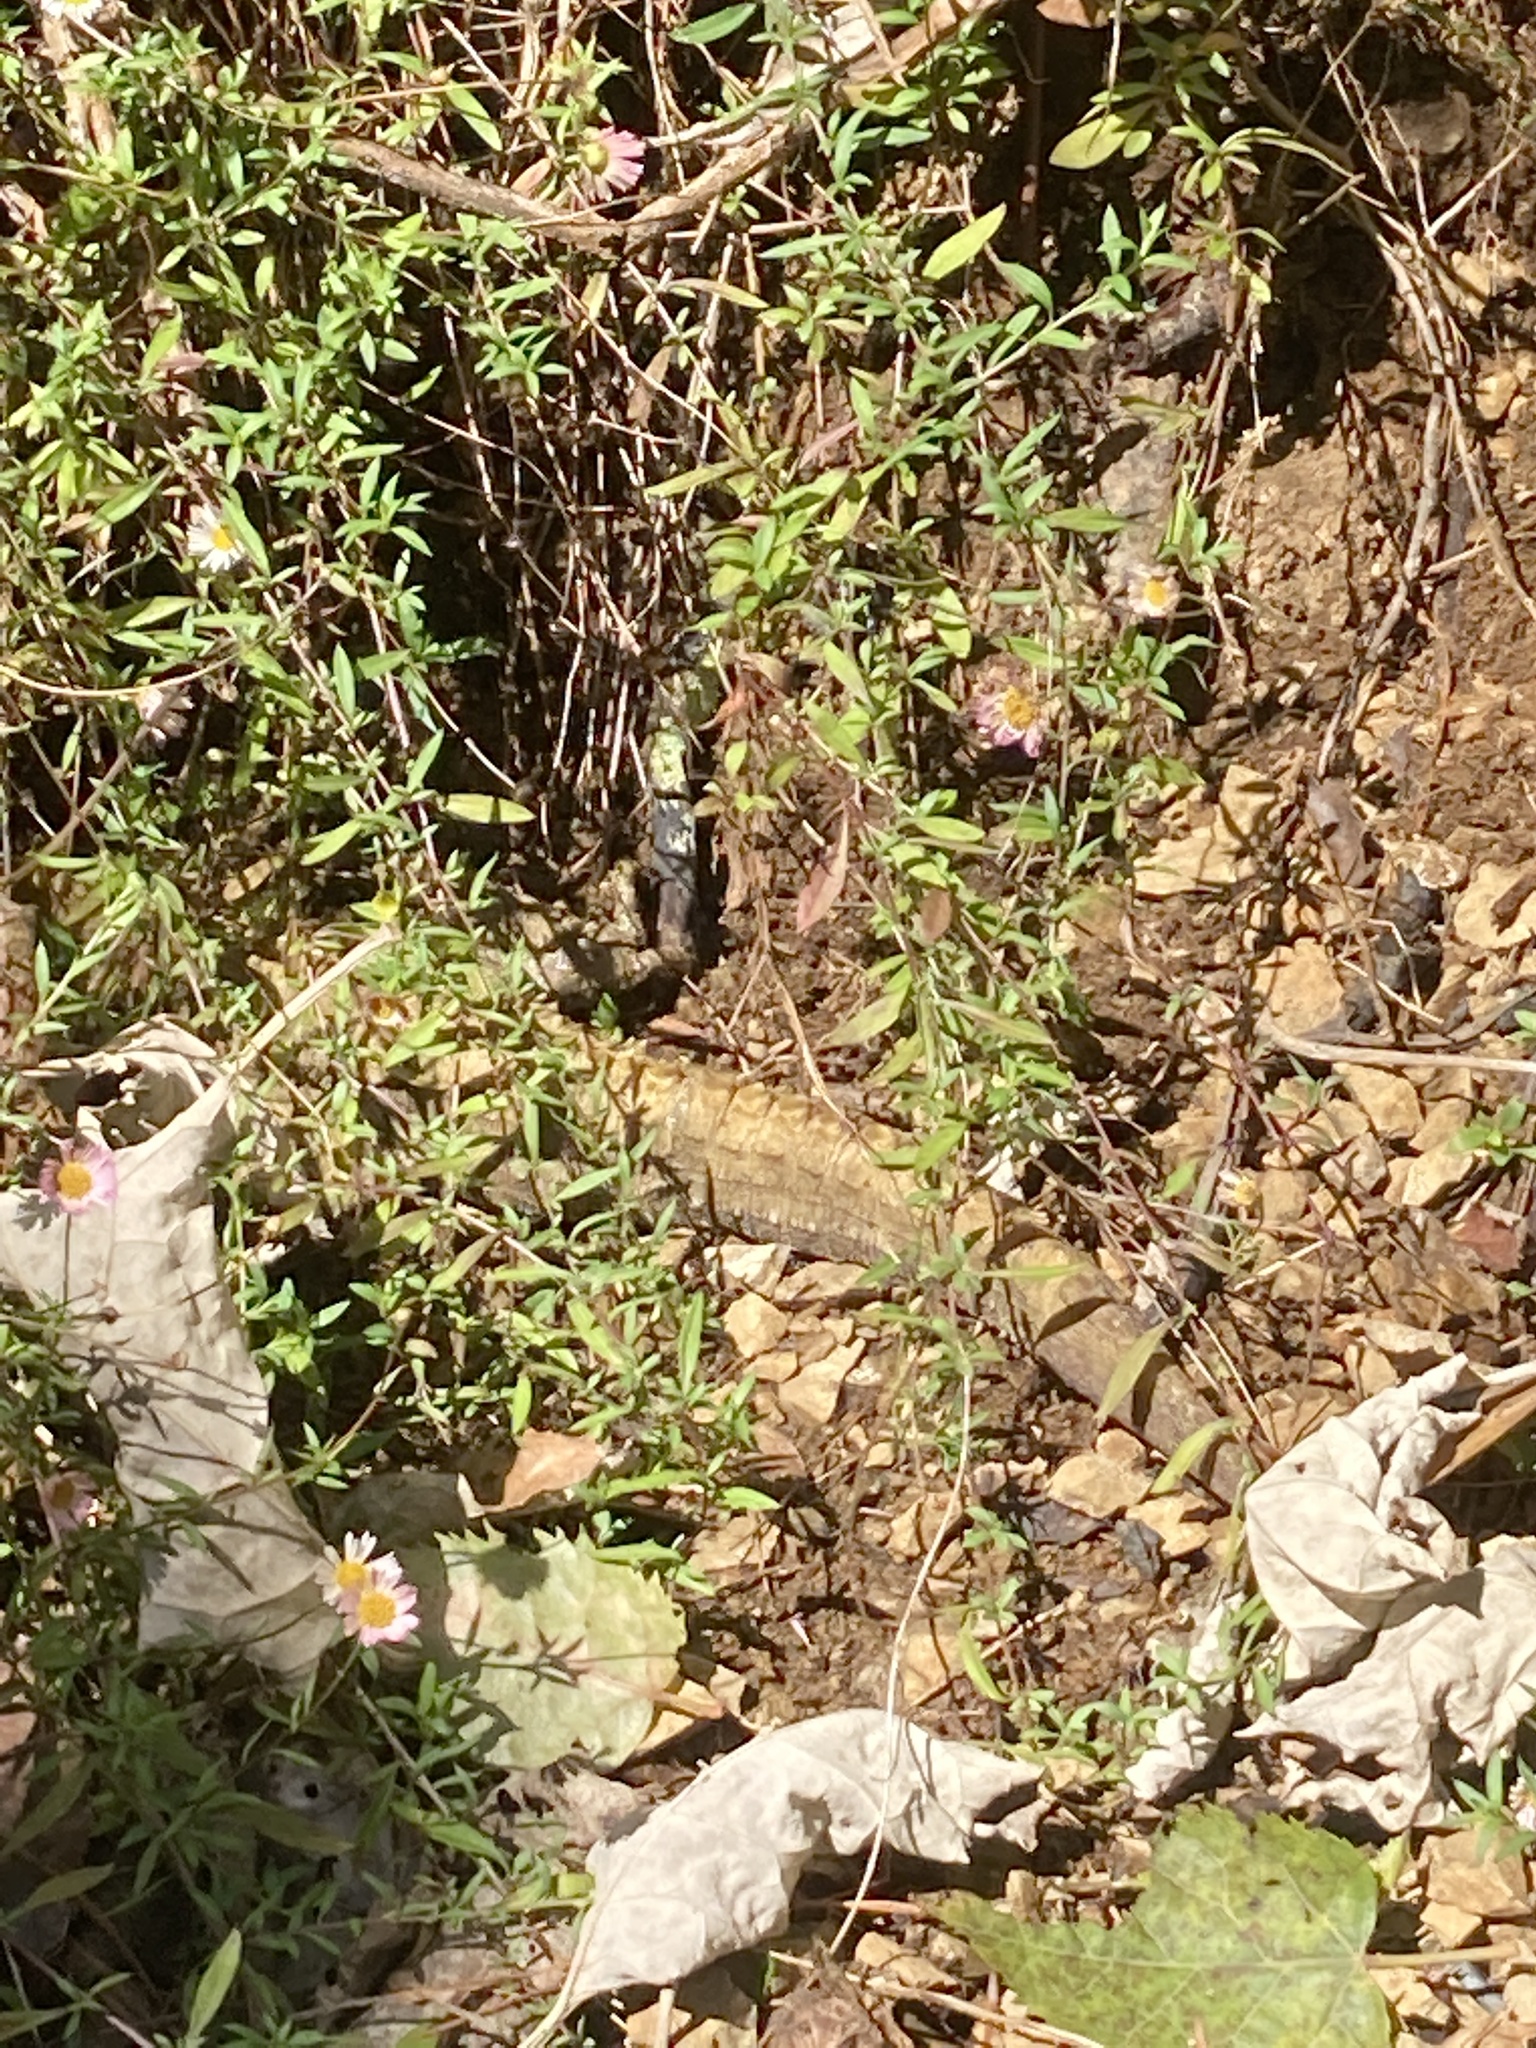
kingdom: Animalia
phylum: Chordata
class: Sphenodontia
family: Sphenodontidae
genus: Sphenodon
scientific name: Sphenodon punctatus
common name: Tuatara
